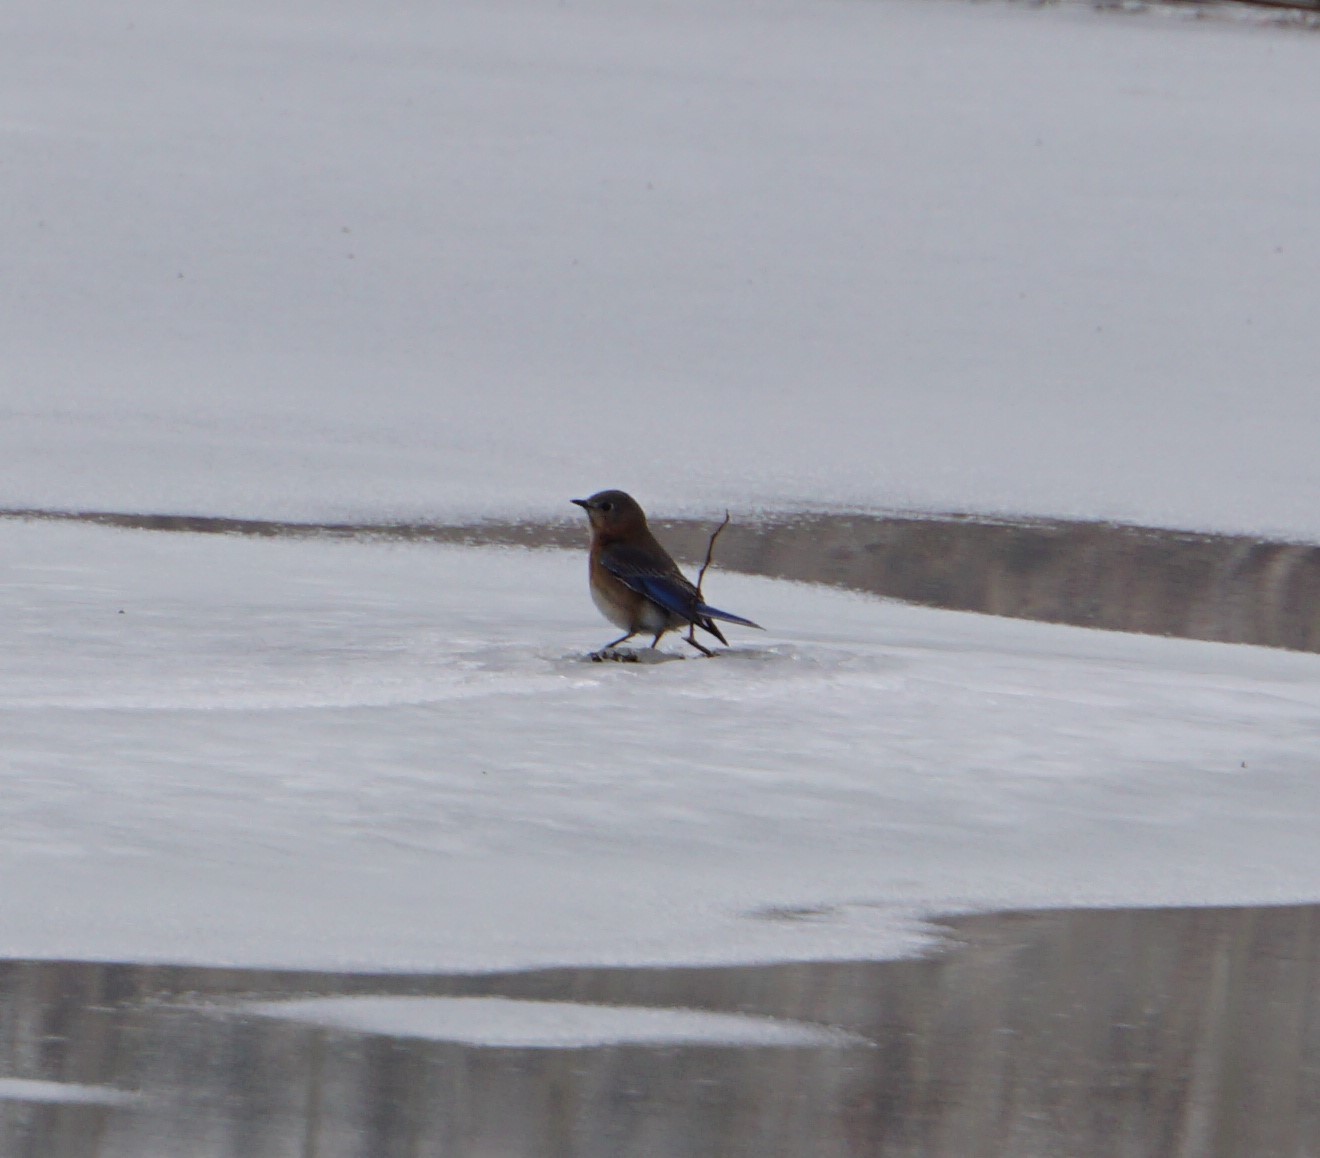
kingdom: Animalia
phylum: Chordata
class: Aves
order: Passeriformes
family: Turdidae
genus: Sialia
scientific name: Sialia sialis
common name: Eastern bluebird
